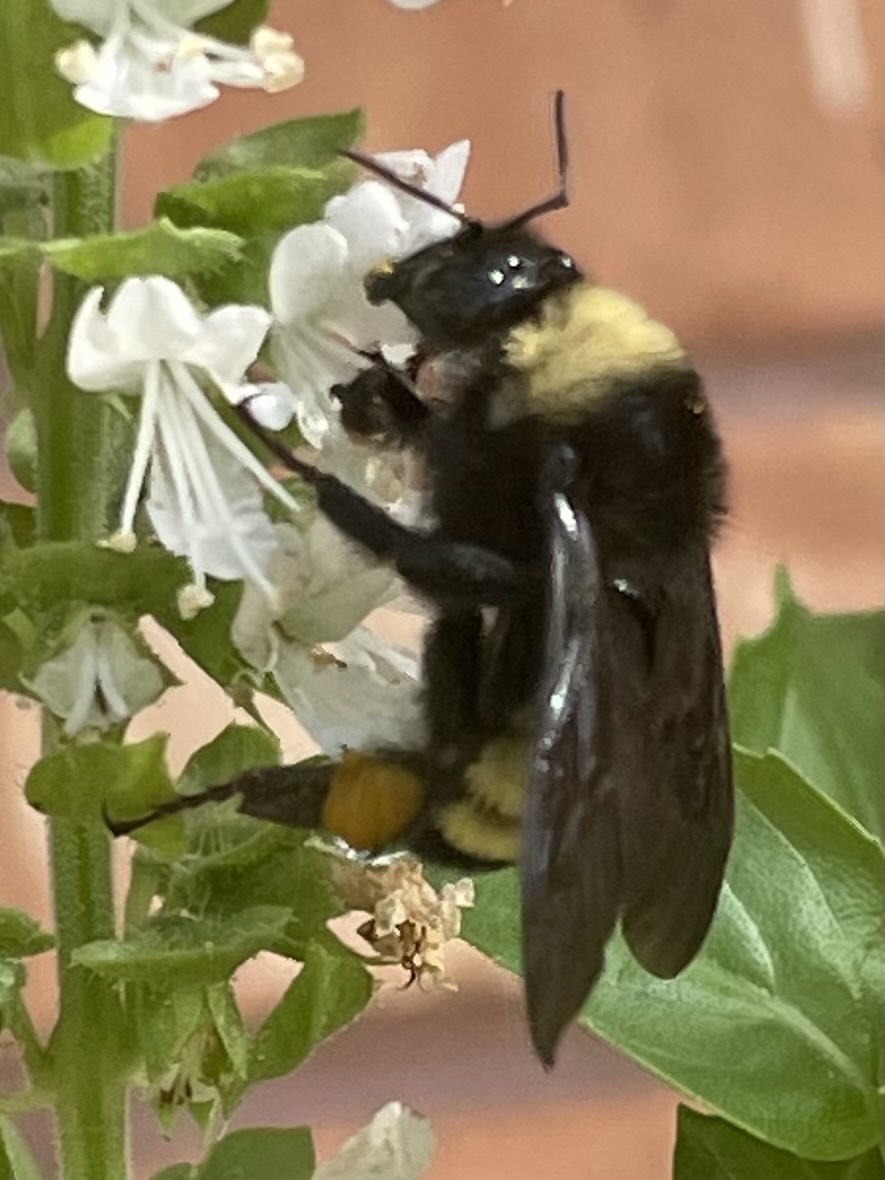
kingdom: Animalia
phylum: Arthropoda
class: Insecta
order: Hymenoptera
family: Apidae
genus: Bombus
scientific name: Bombus pensylvanicus
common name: Bumble bee
